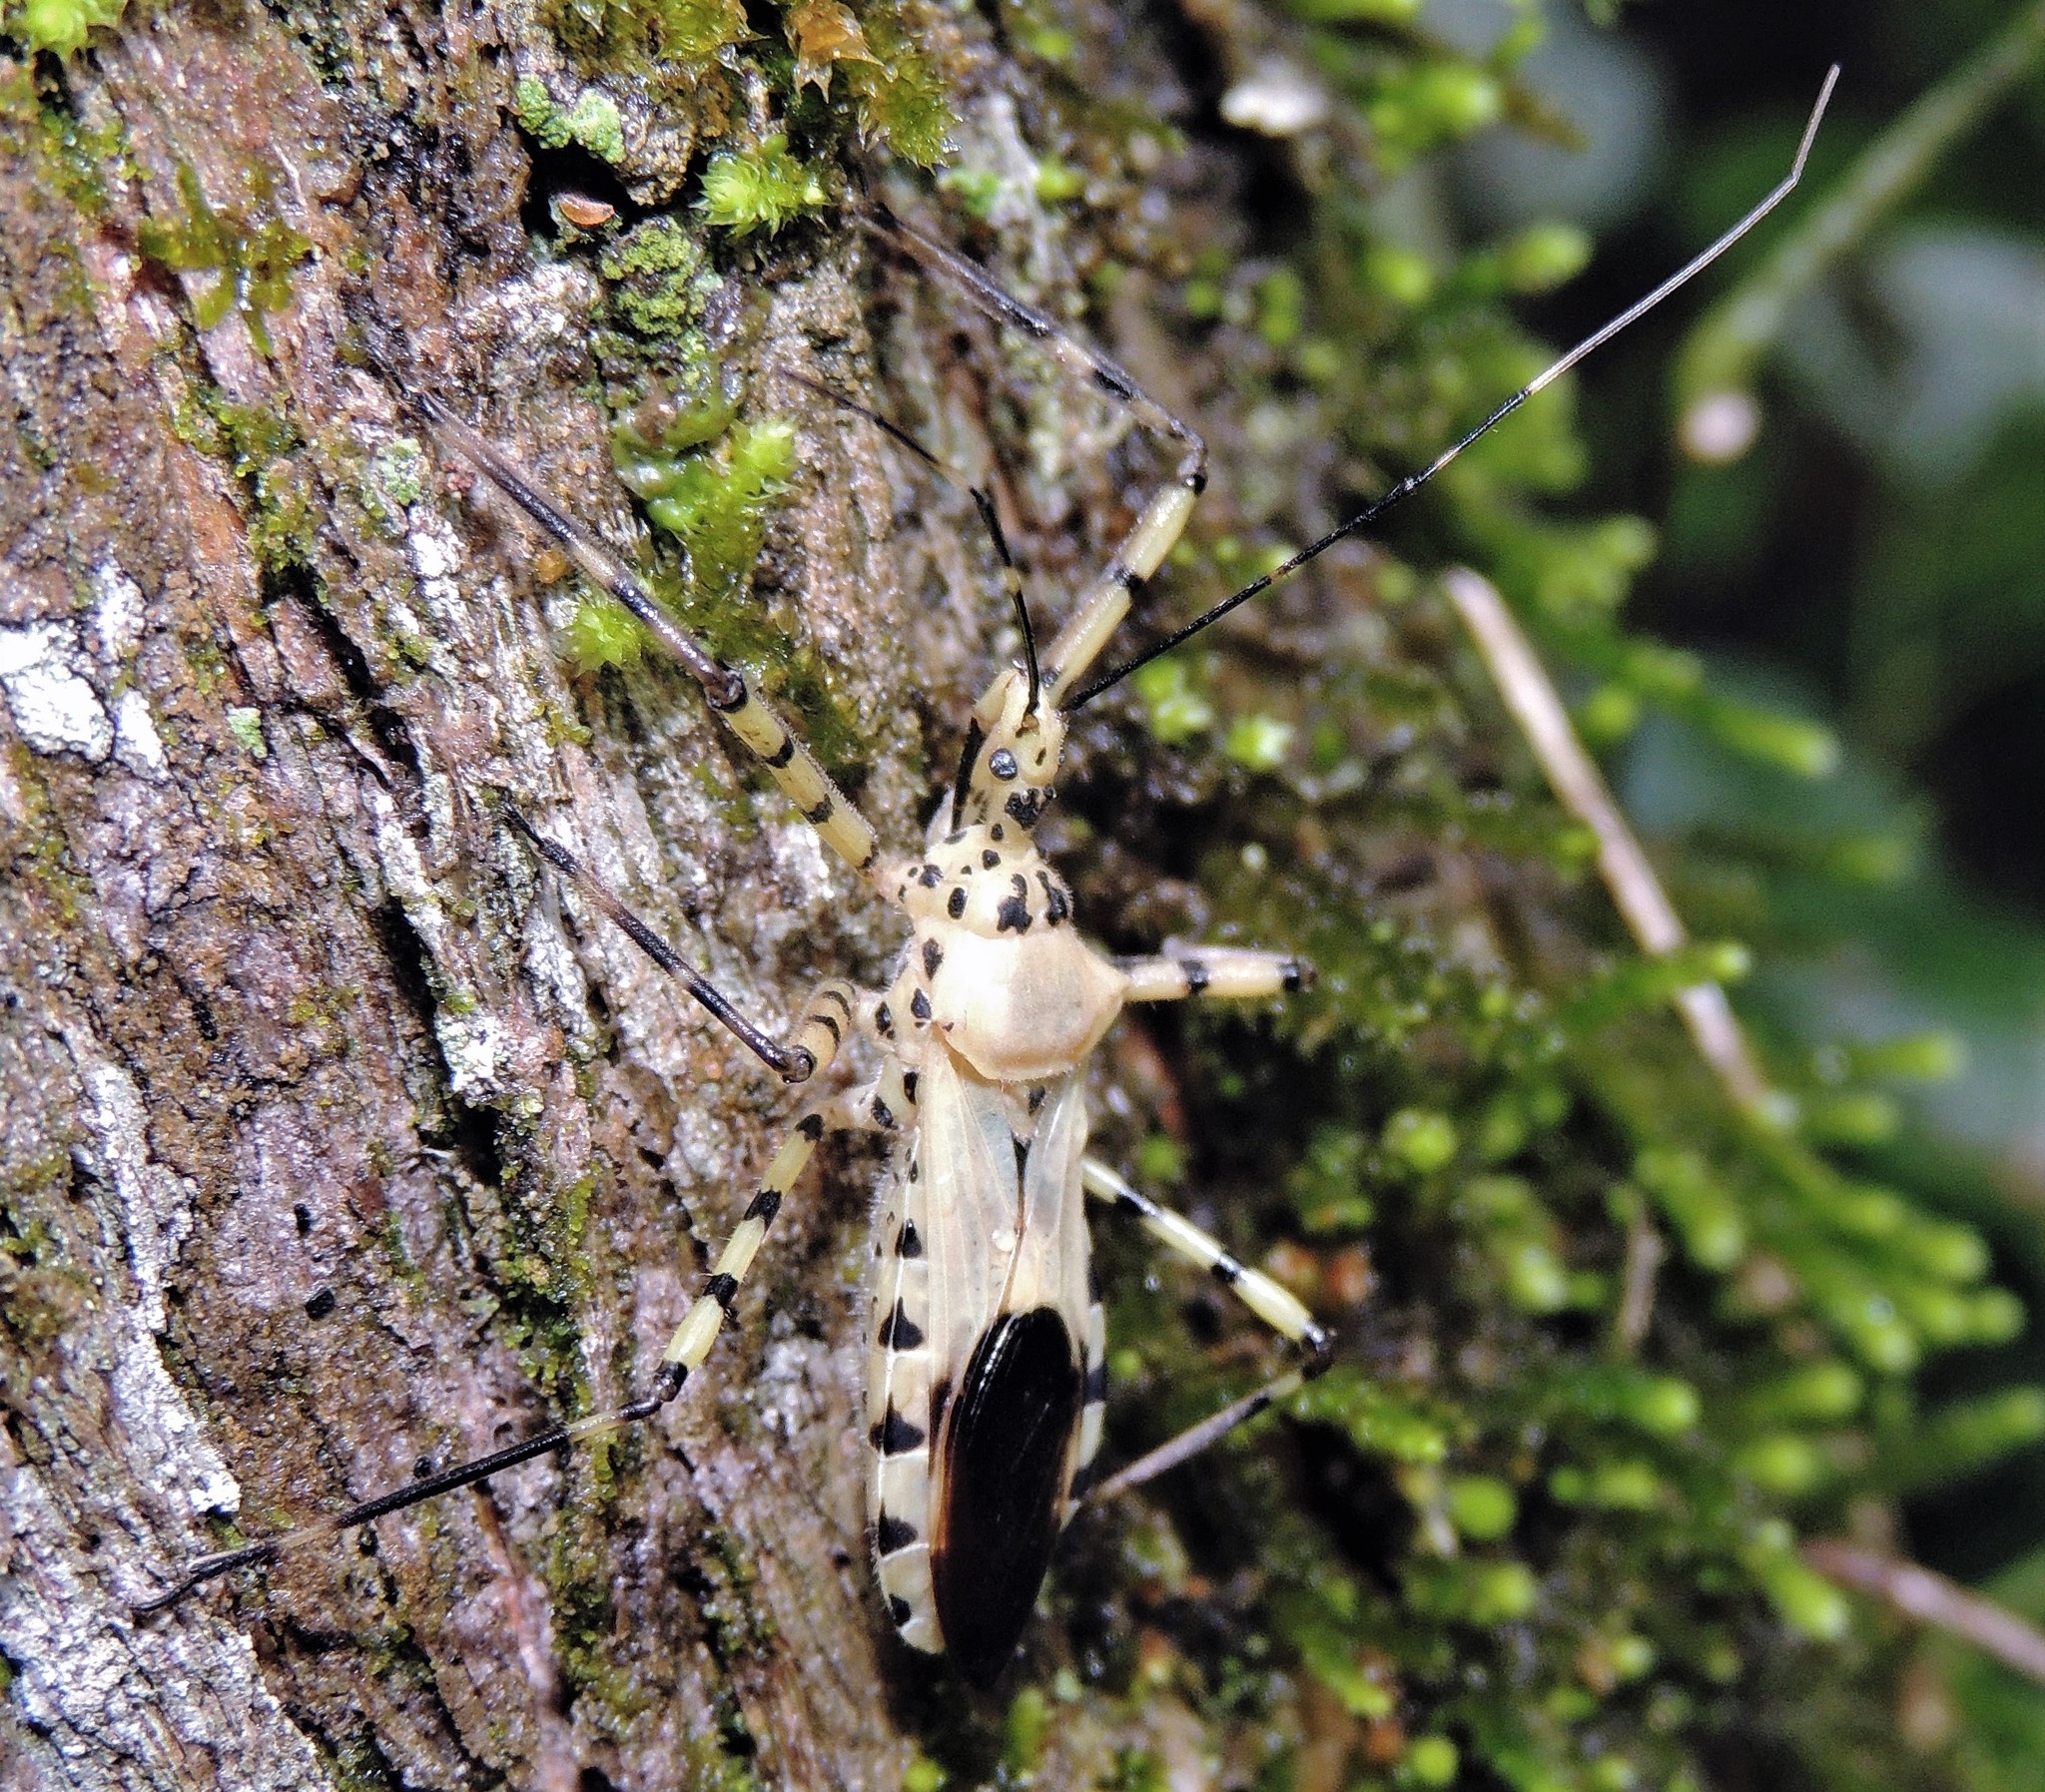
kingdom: Animalia
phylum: Arthropoda
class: Insecta
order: Hemiptera
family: Reduviidae
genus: Zelus
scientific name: Zelus conjungens
